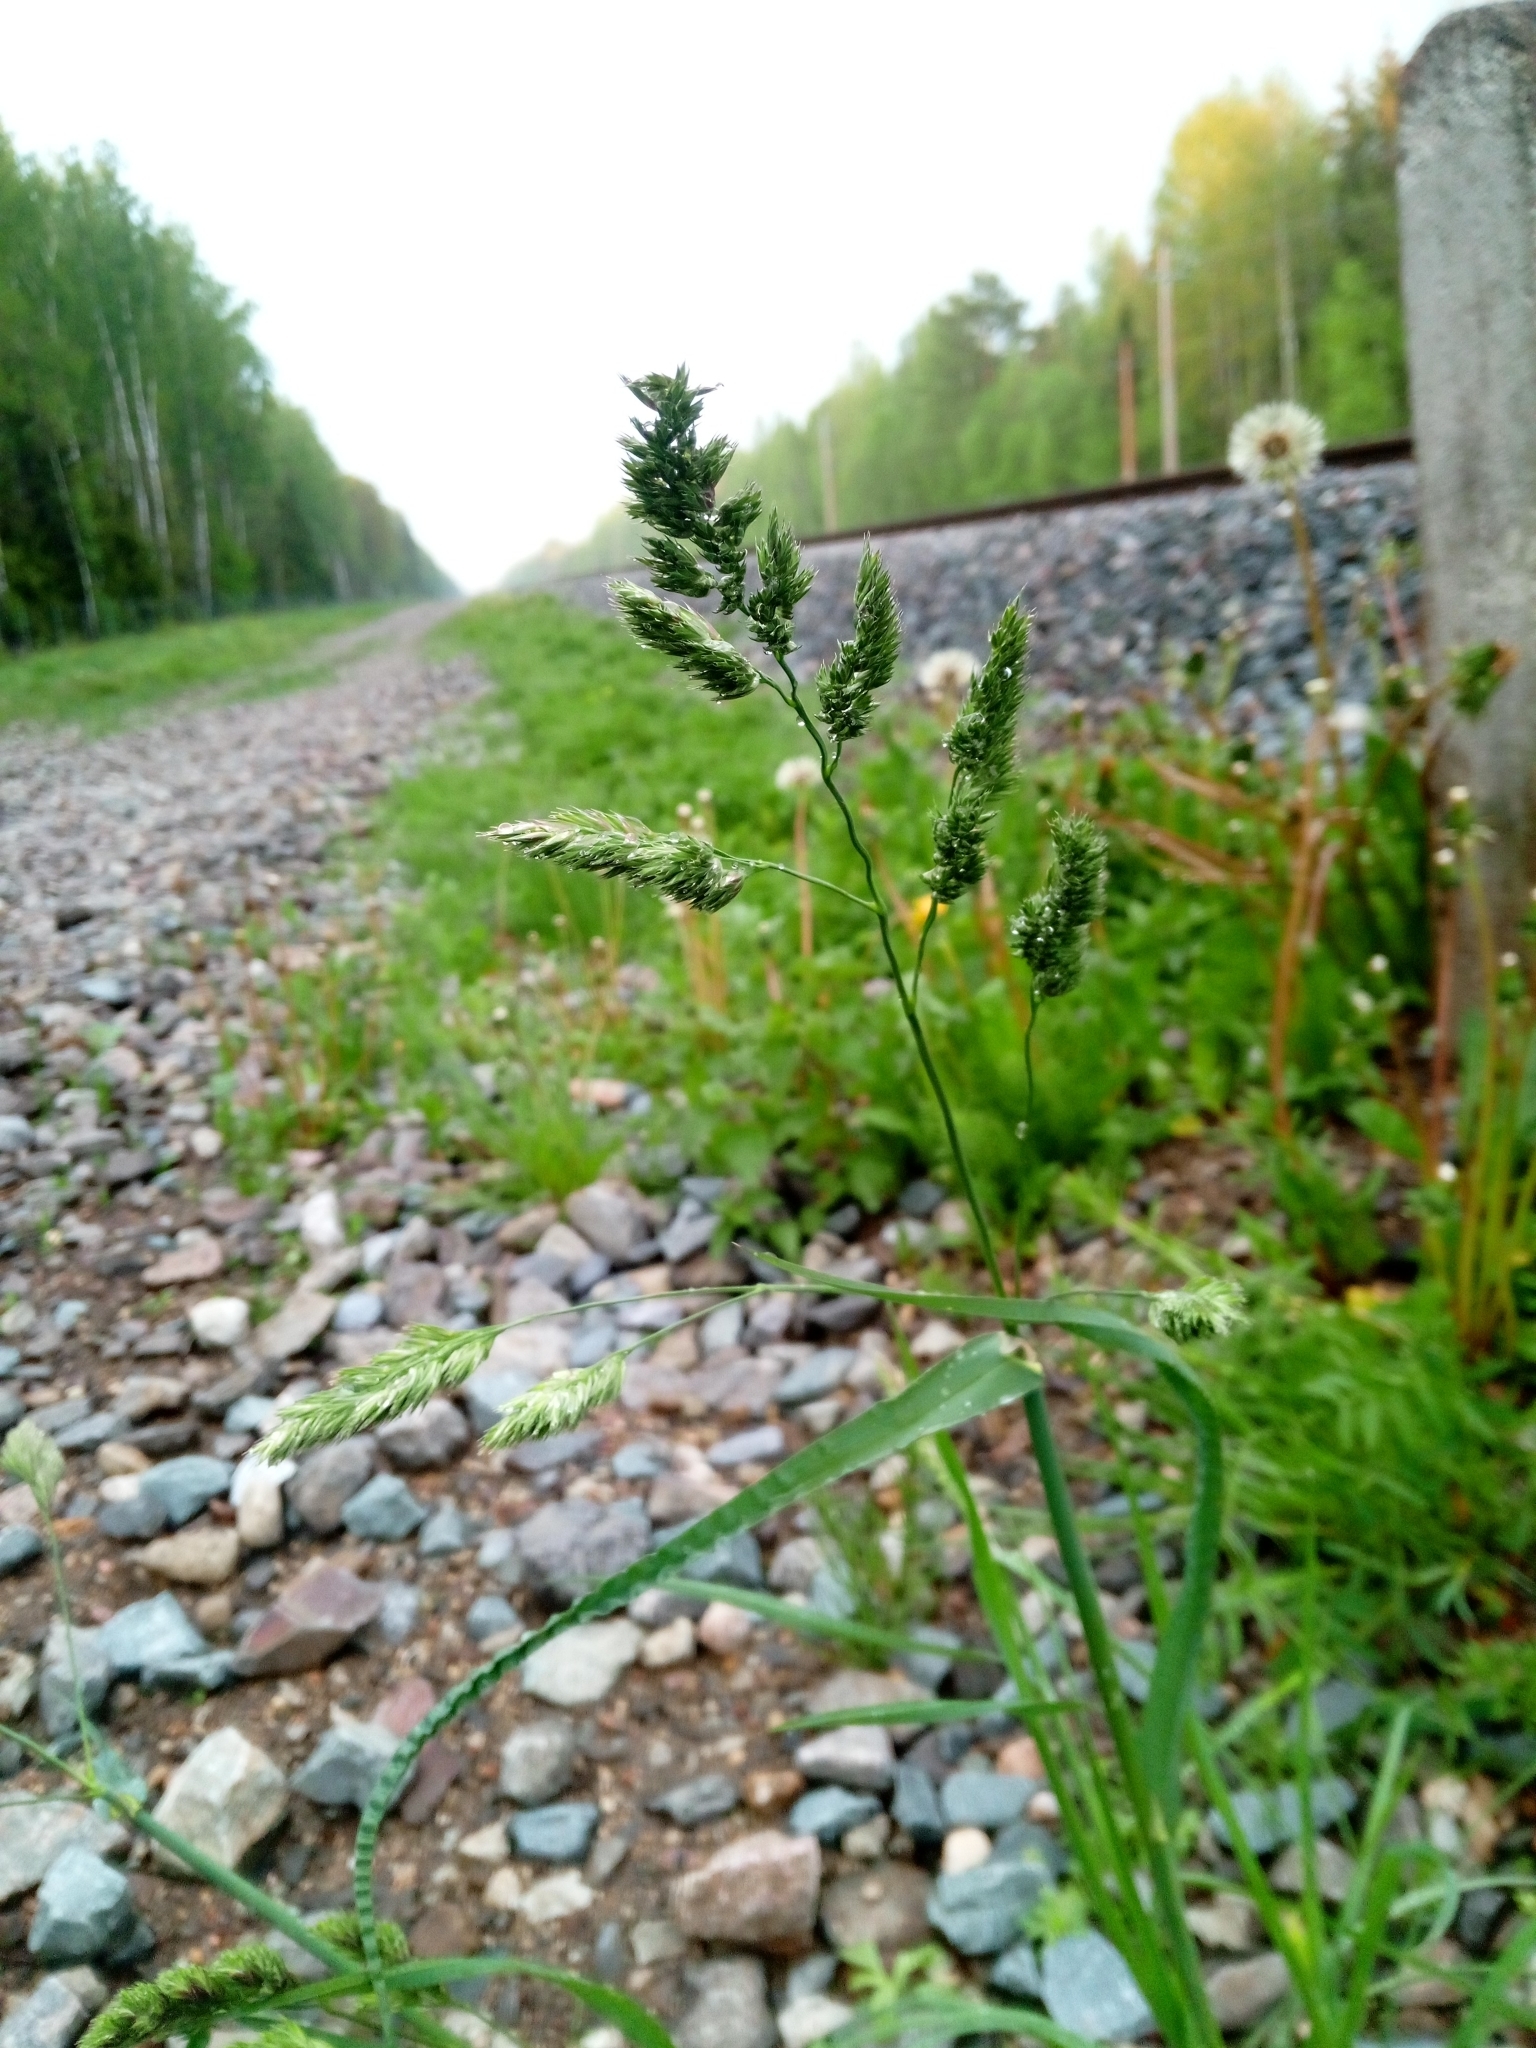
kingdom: Plantae
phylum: Tracheophyta
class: Liliopsida
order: Poales
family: Poaceae
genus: Dactylis
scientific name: Dactylis glomerata
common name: Orchardgrass
